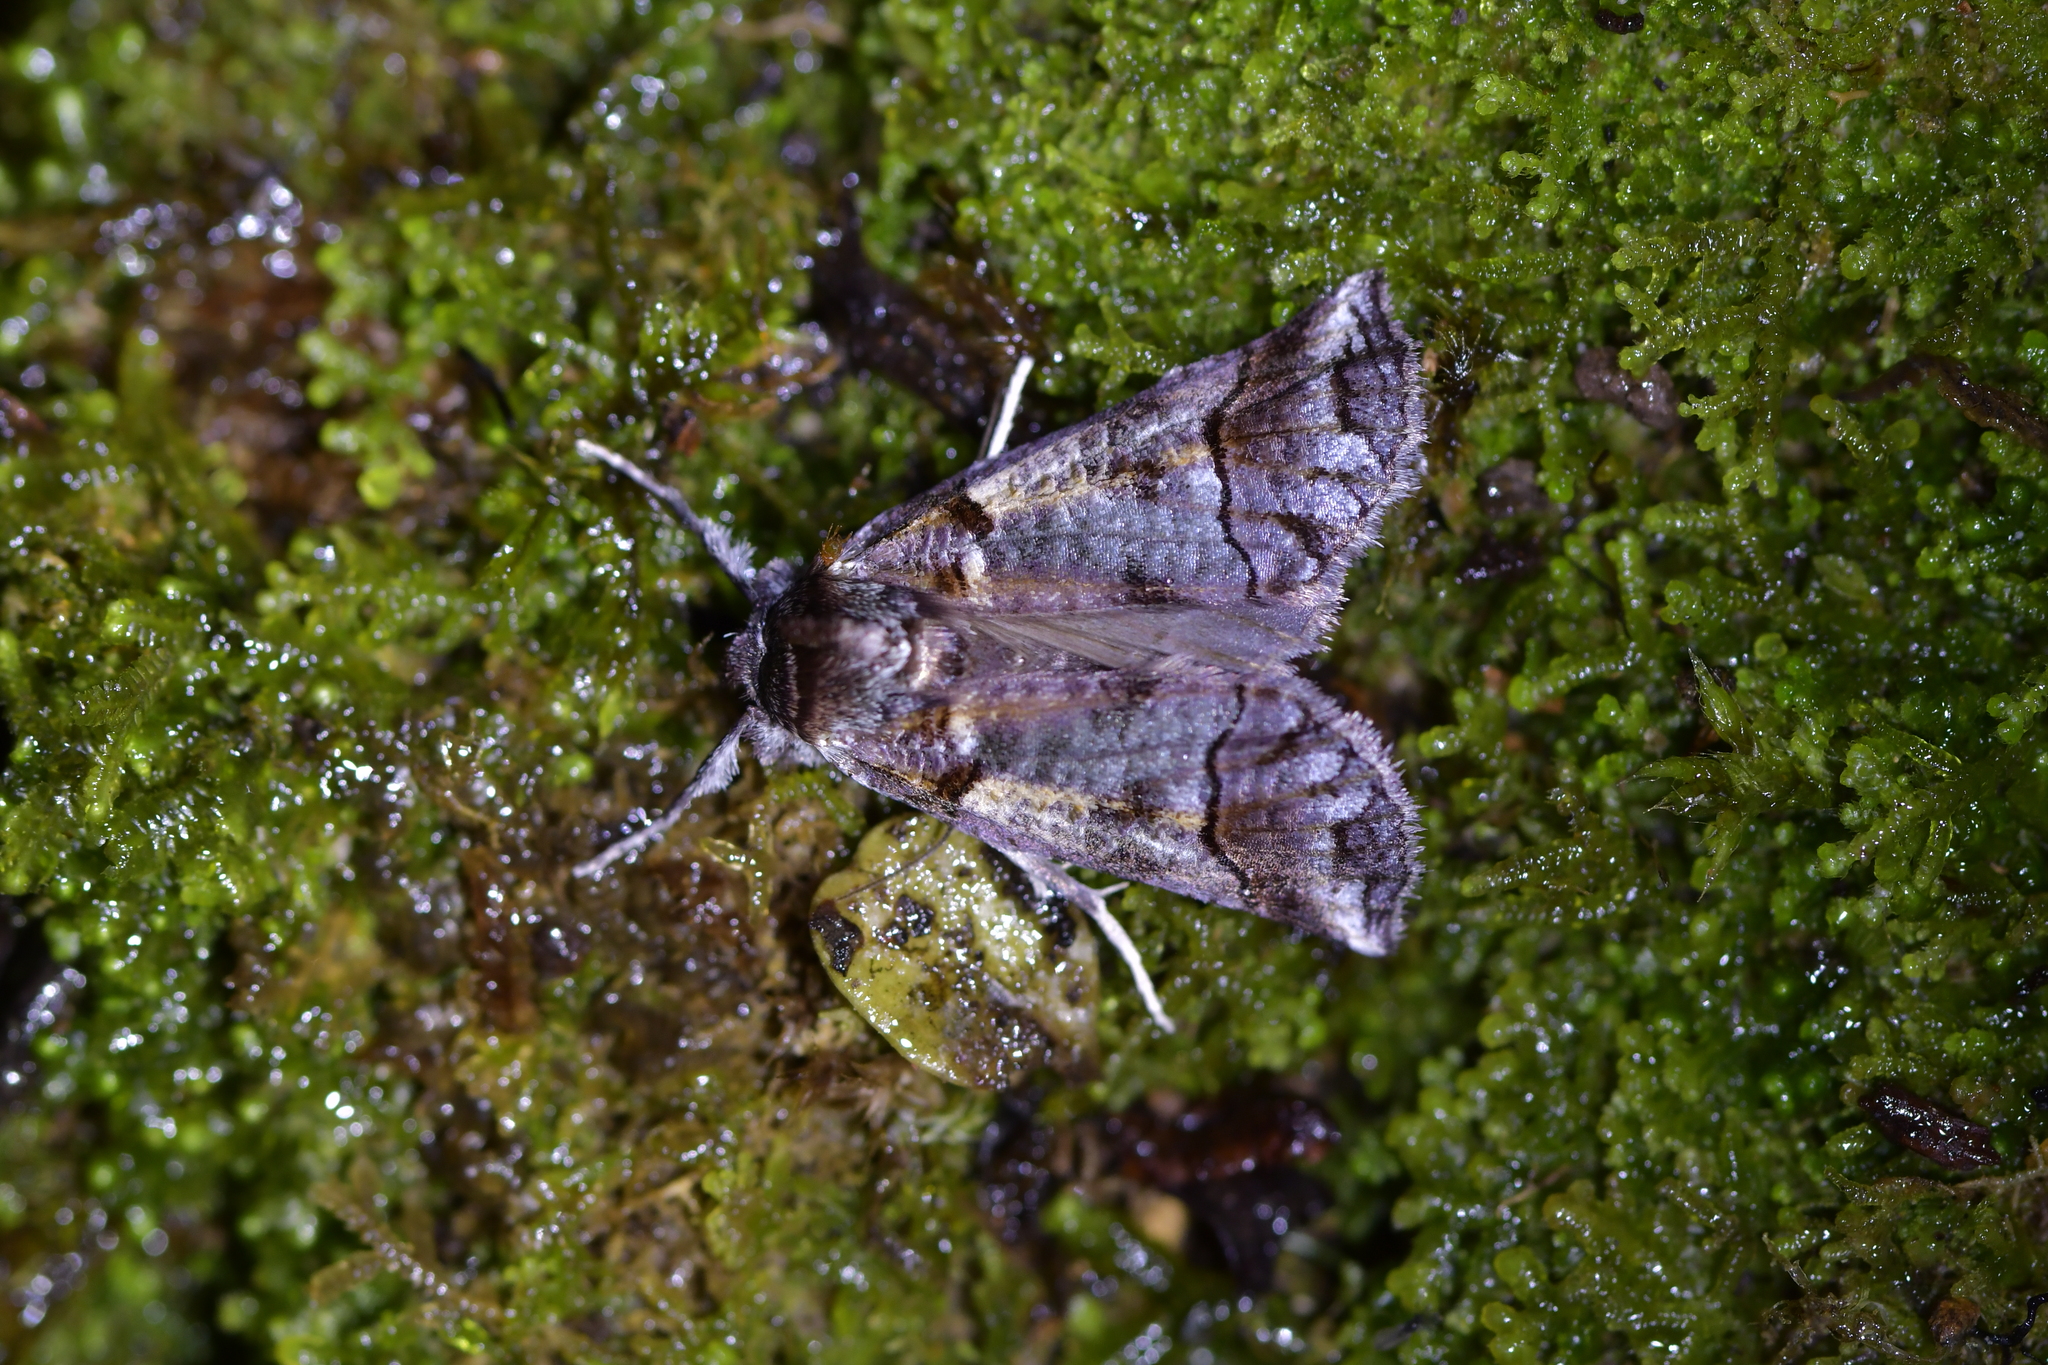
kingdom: Animalia
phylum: Arthropoda
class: Insecta
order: Lepidoptera
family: Geometridae
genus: Declana
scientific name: Declana
